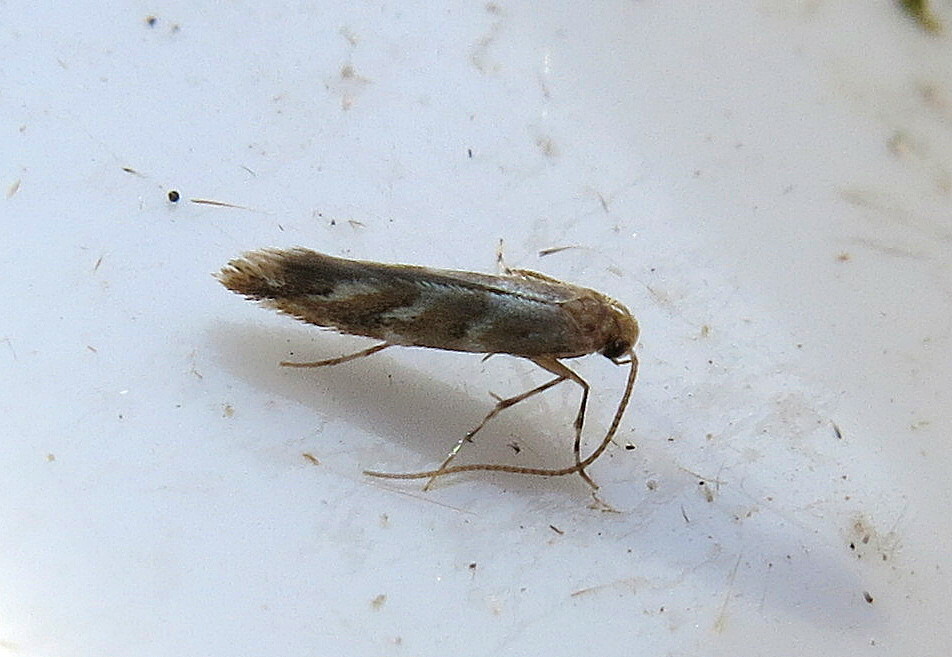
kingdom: Animalia
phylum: Arthropoda
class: Insecta
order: Lepidoptera
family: Gracillariidae
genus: Cameraria
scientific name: Cameraria ohridella
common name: Horse-chestnut leaf-miner
